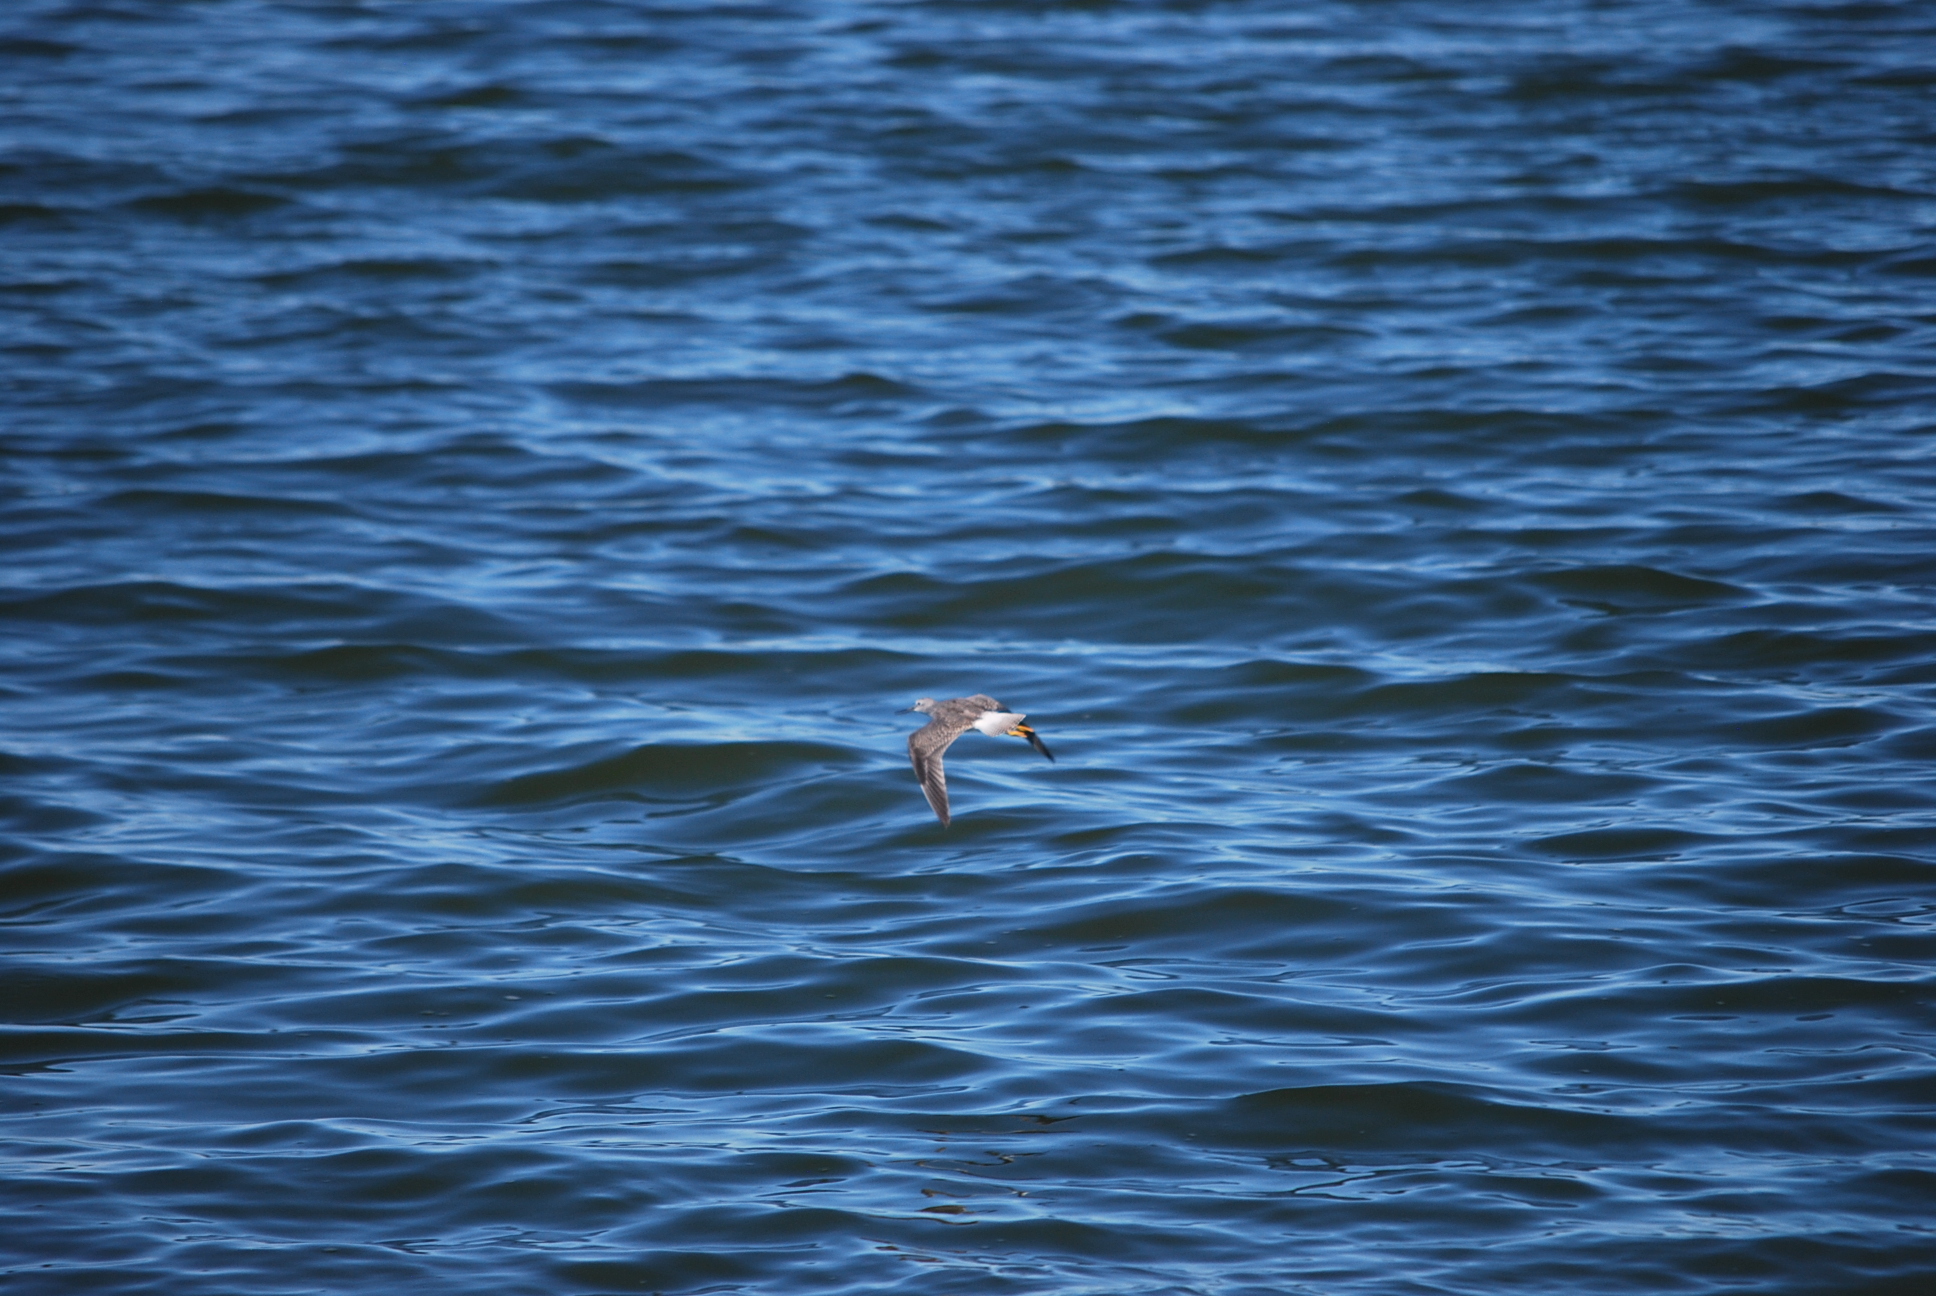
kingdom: Animalia
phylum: Chordata
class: Aves
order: Charadriiformes
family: Scolopacidae
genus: Tringa
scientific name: Tringa flavipes
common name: Lesser yellowlegs
